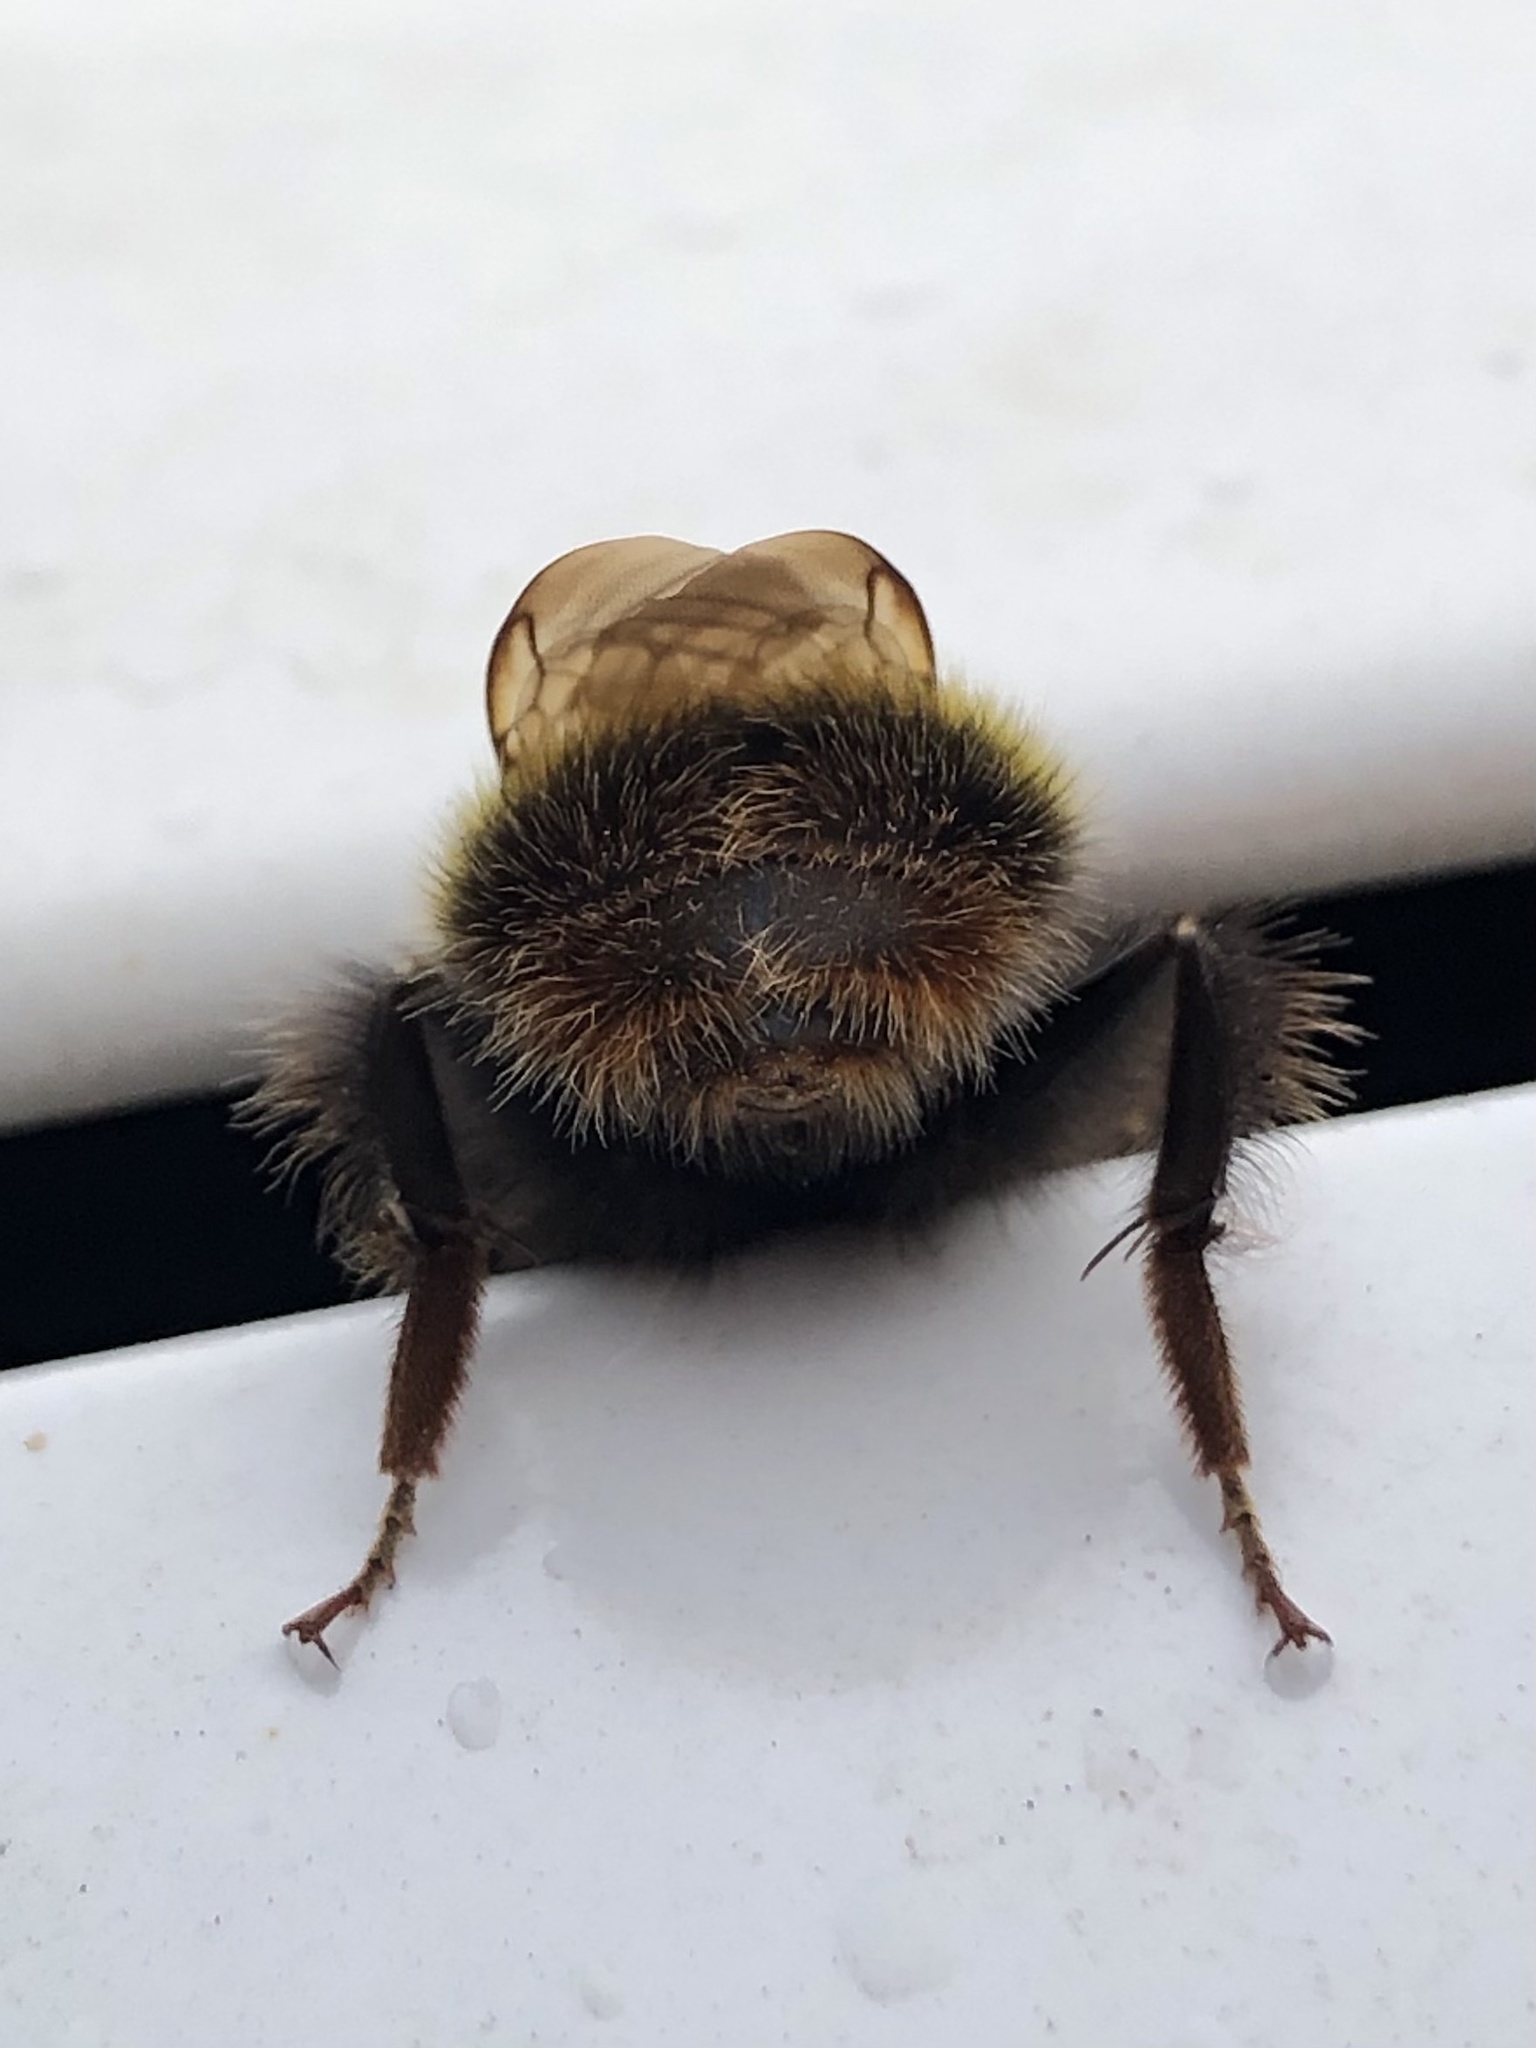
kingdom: Animalia
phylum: Arthropoda
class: Insecta
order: Hymenoptera
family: Apidae
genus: Bombus
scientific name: Bombus pratorum
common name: Early humble-bee
